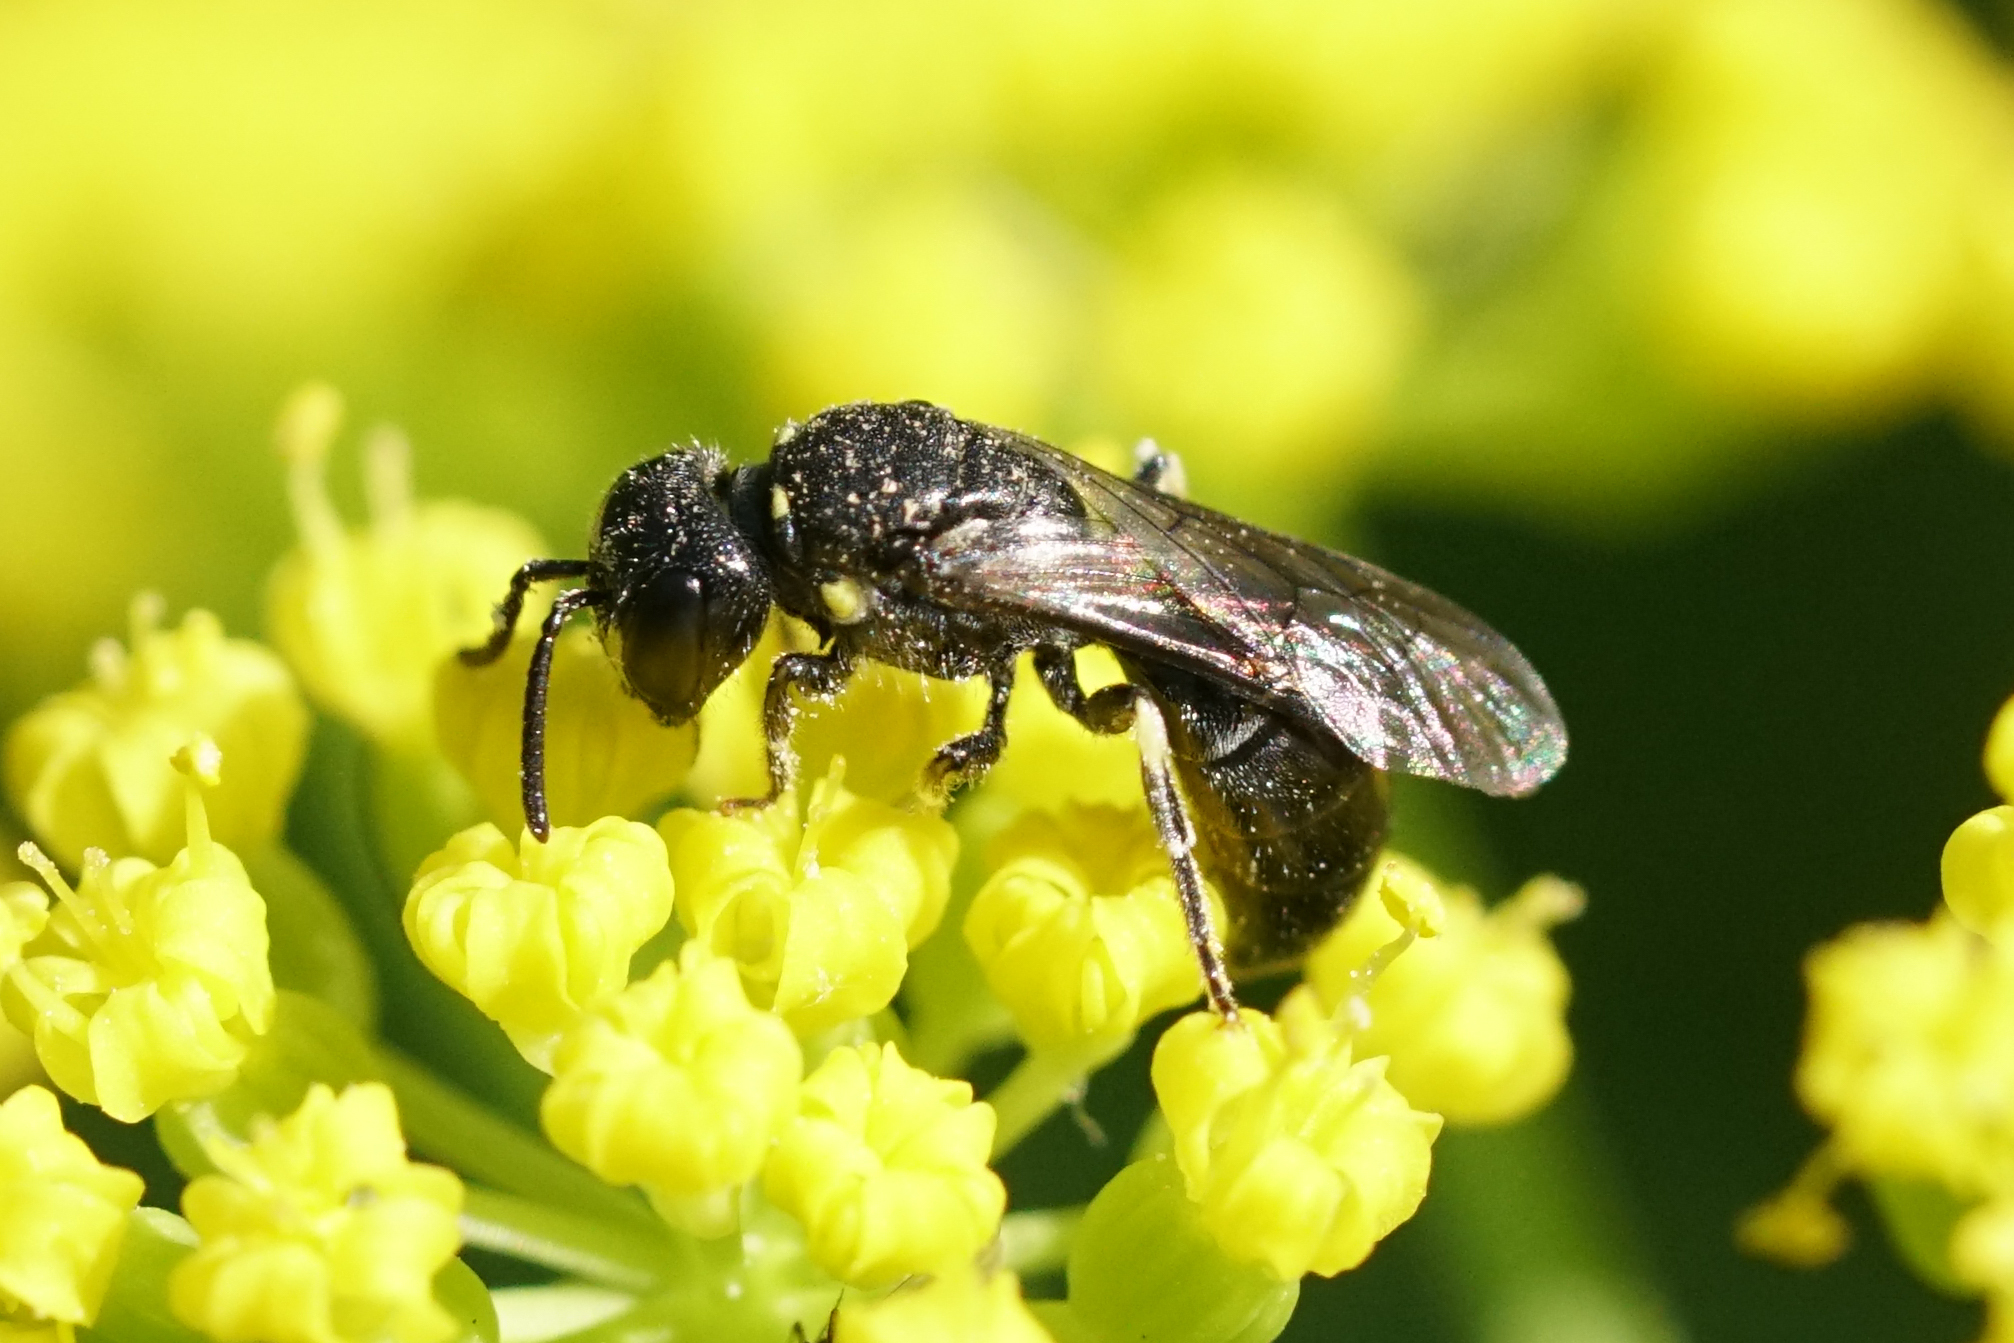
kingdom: Animalia
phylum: Arthropoda
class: Insecta
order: Hymenoptera
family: Colletidae
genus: Hylaeus
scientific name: Hylaeus modestus
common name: Yellow-faced bee
